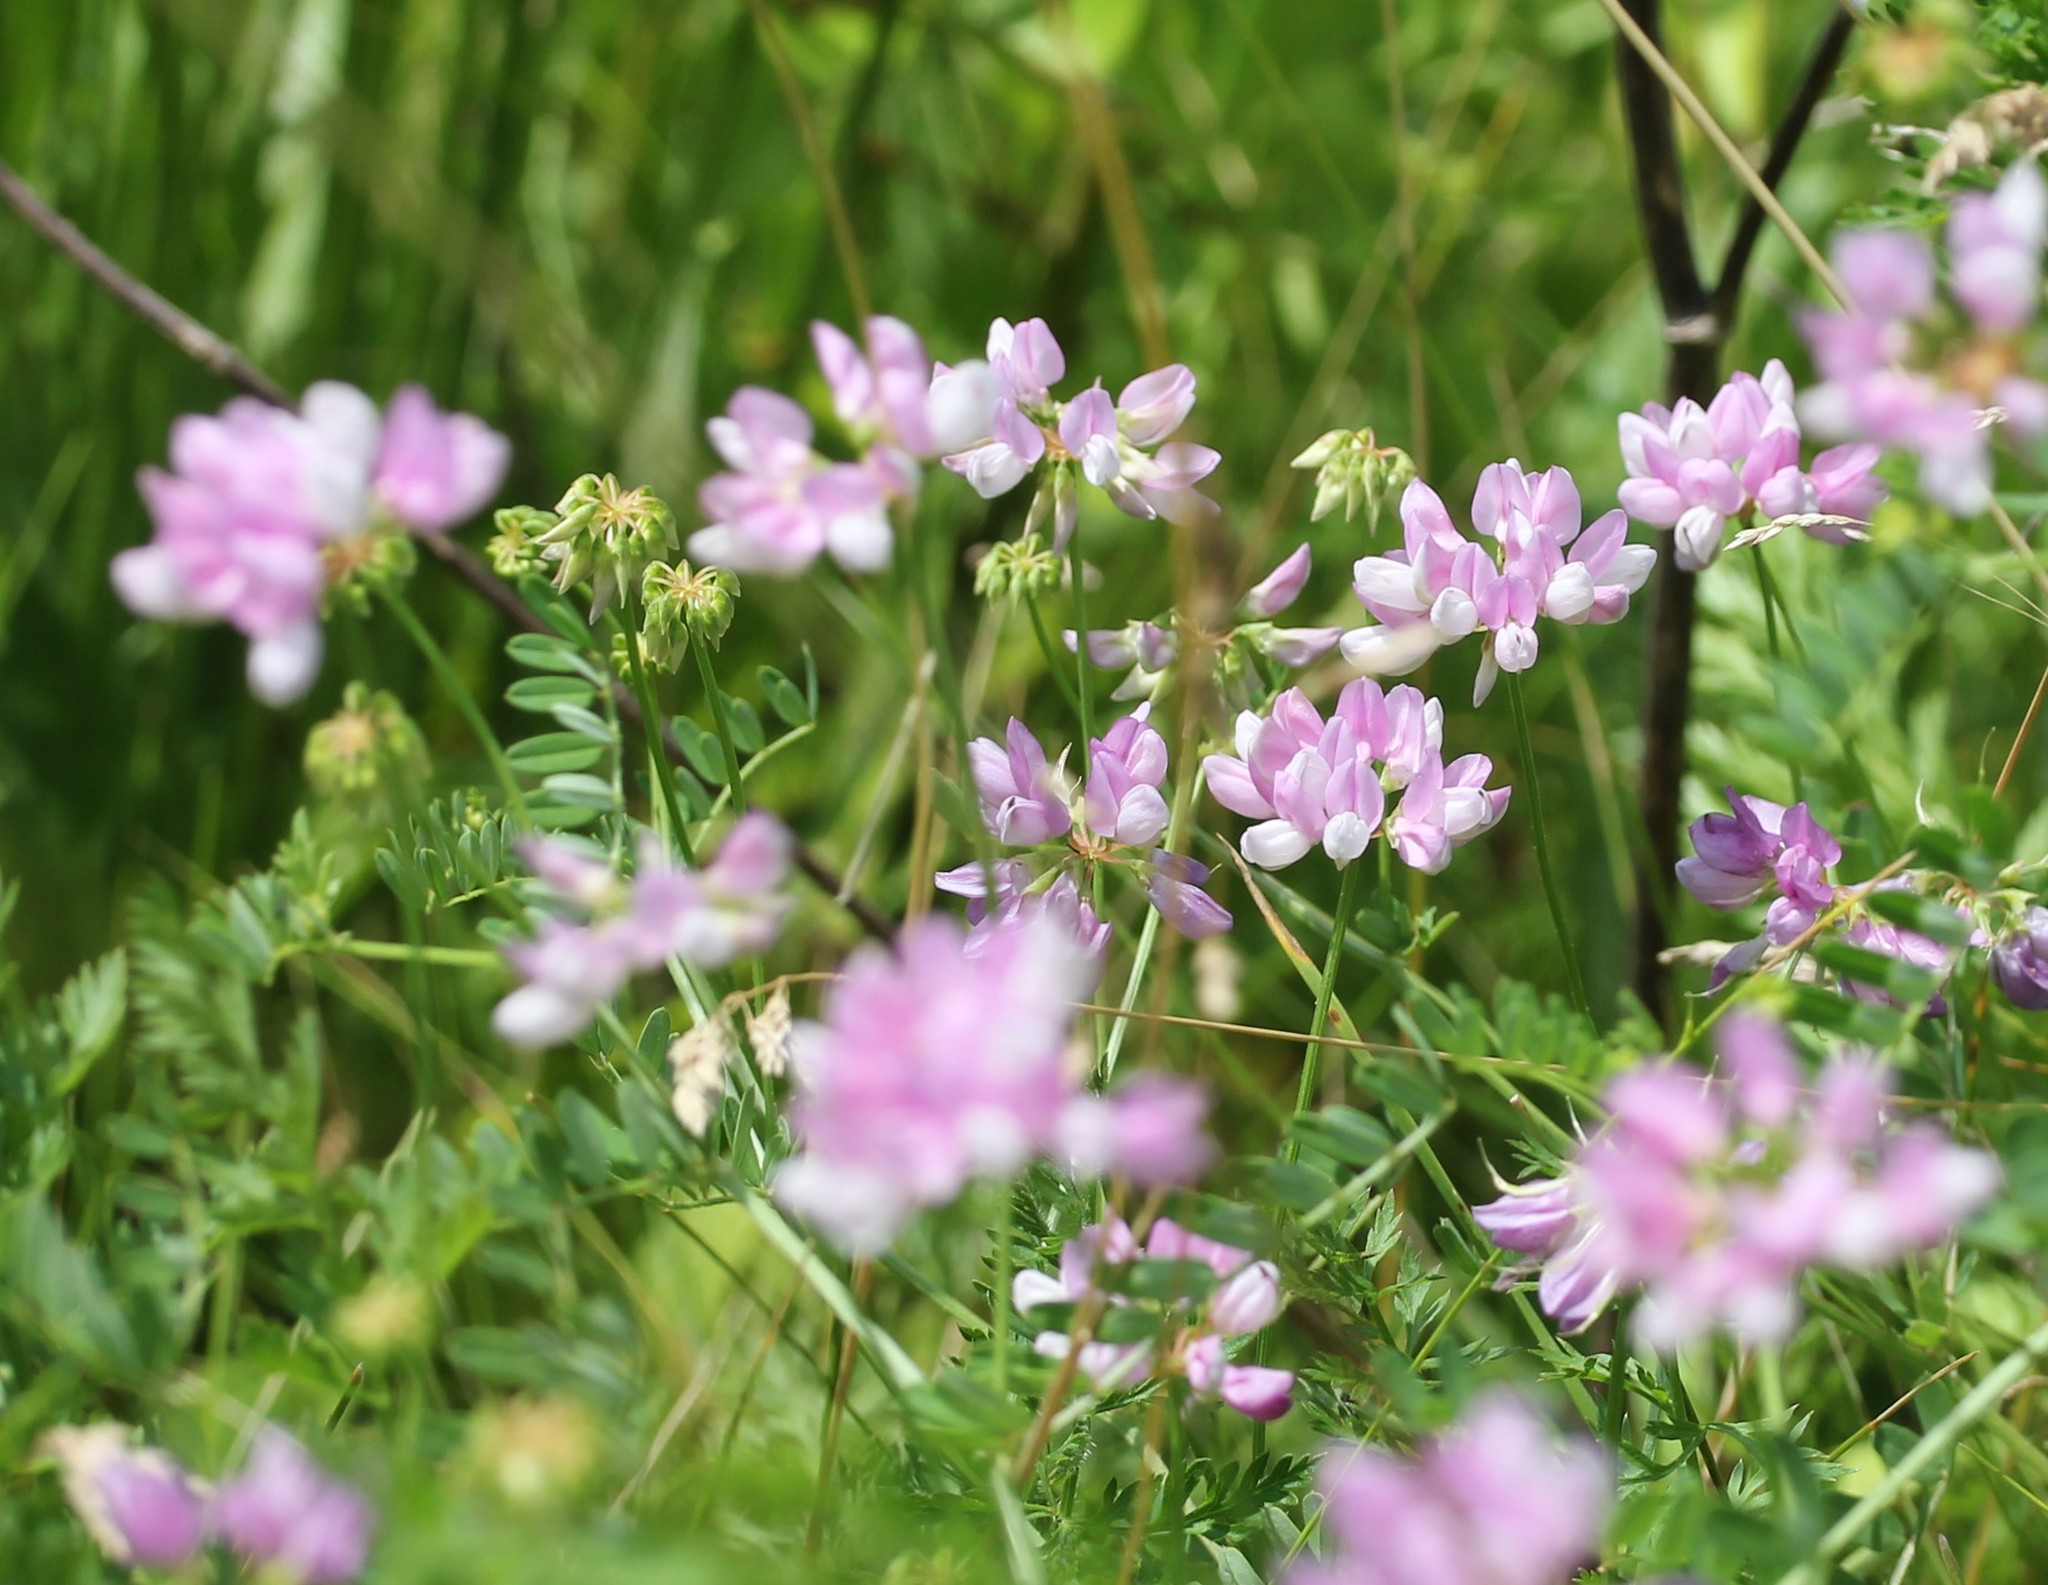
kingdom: Plantae
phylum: Tracheophyta
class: Magnoliopsida
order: Fabales
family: Fabaceae
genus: Coronilla
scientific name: Coronilla varia
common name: Crownvetch
